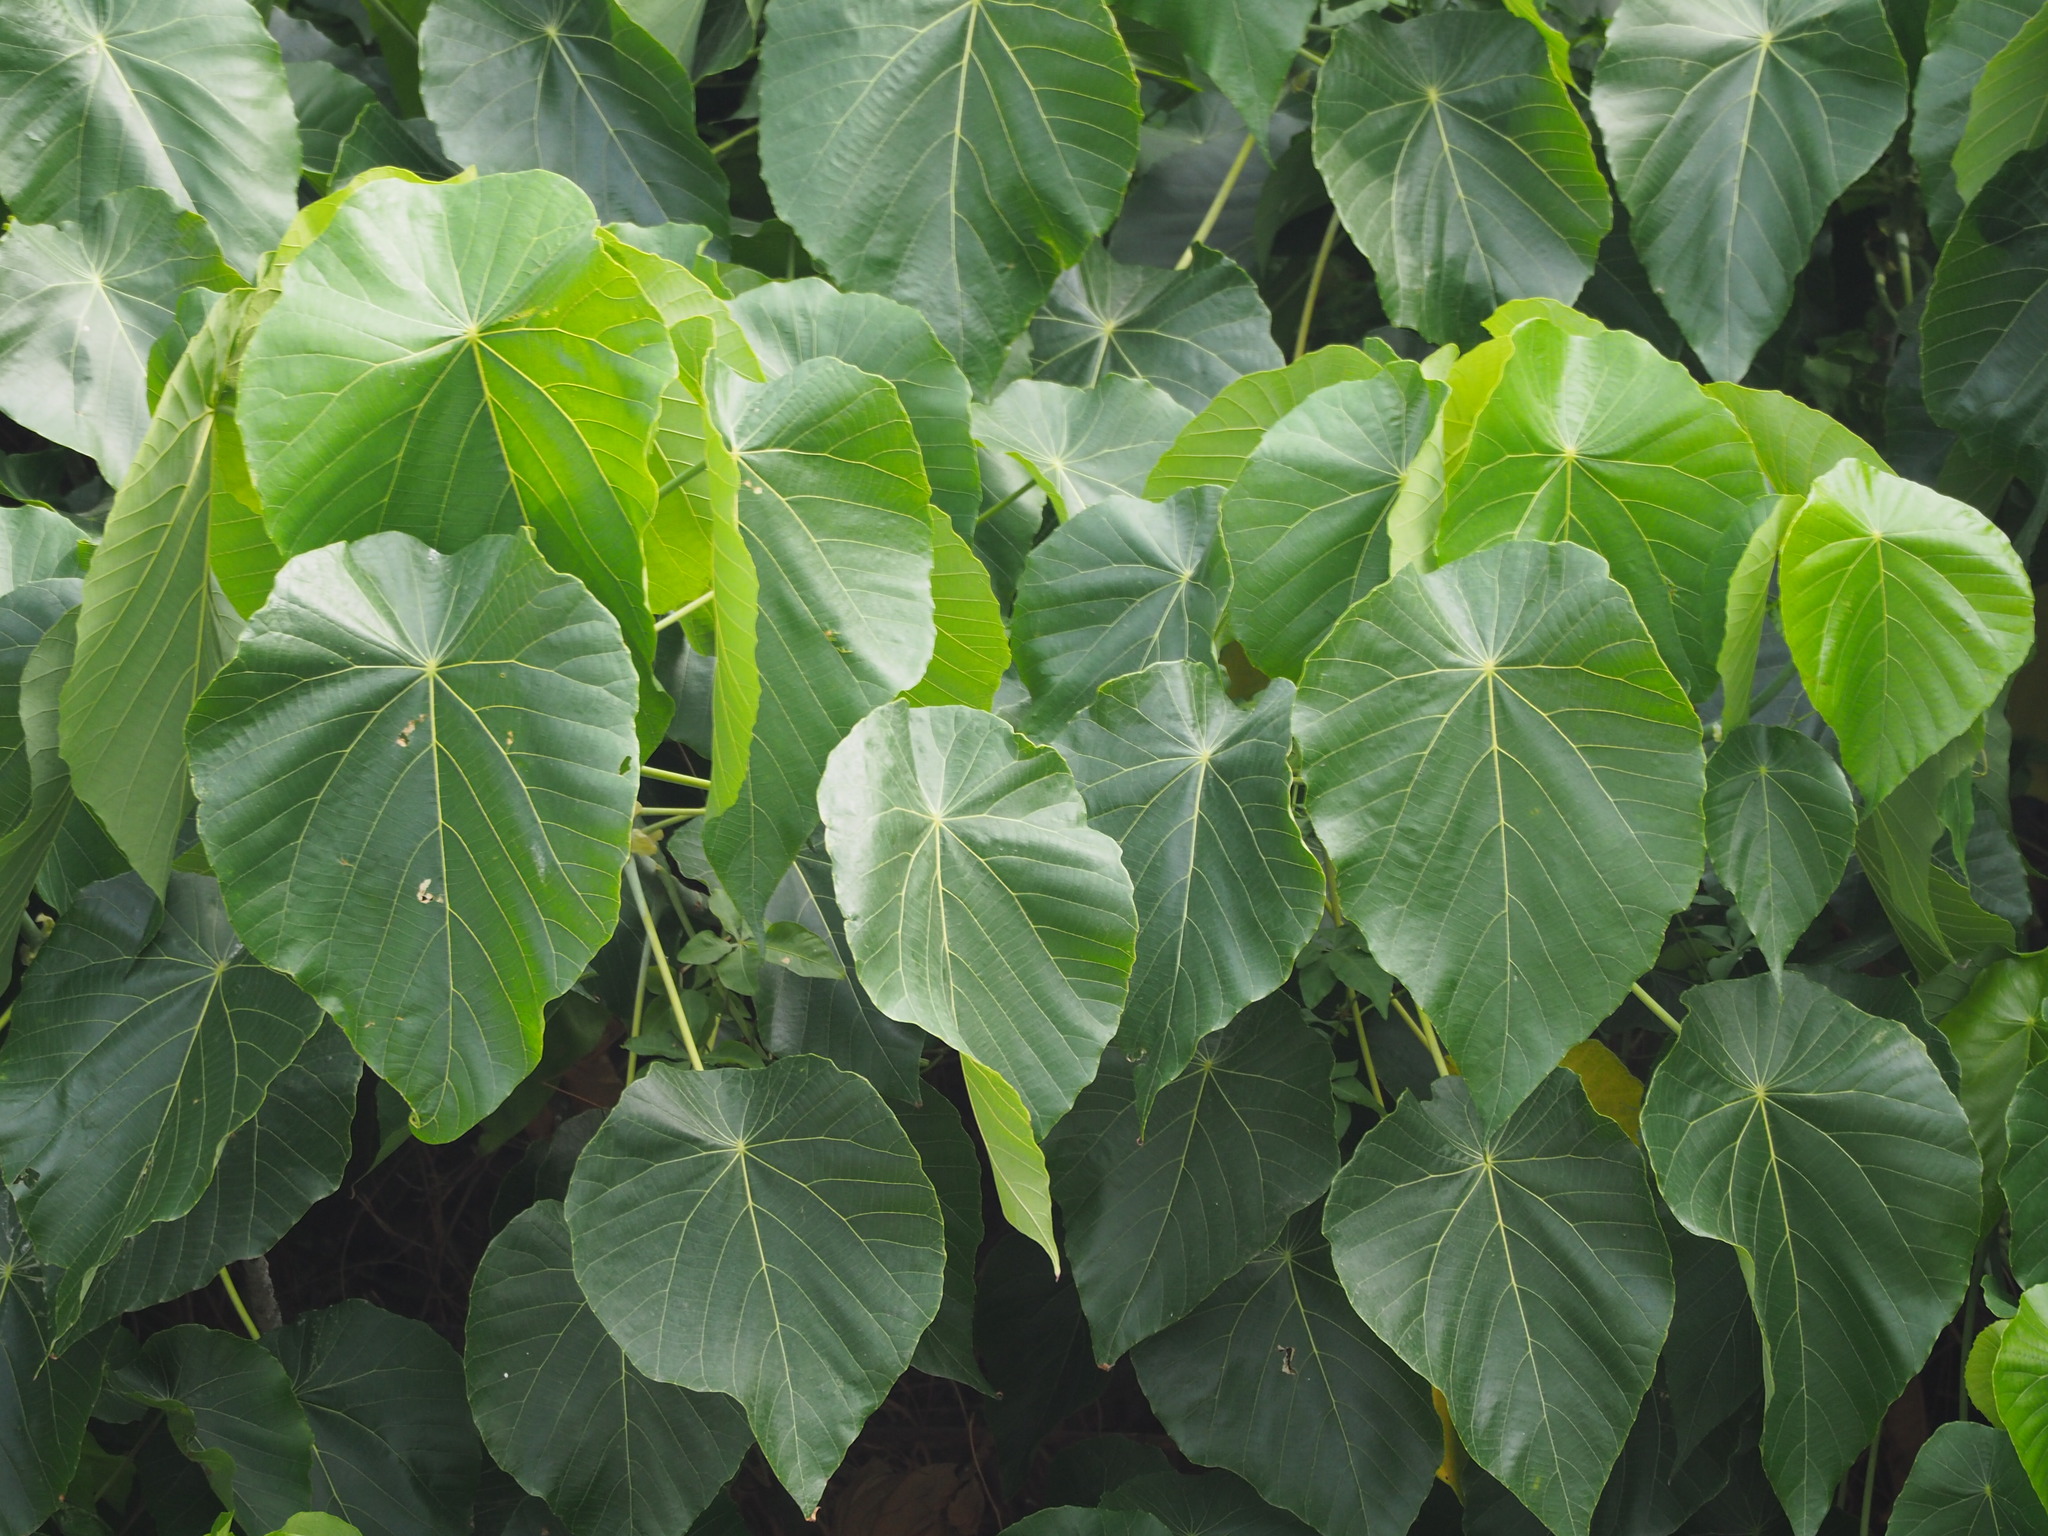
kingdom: Plantae
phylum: Tracheophyta
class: Magnoliopsida
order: Malpighiales
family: Euphorbiaceae
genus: Macaranga
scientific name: Macaranga tanarius
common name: Parasol leaf tree
